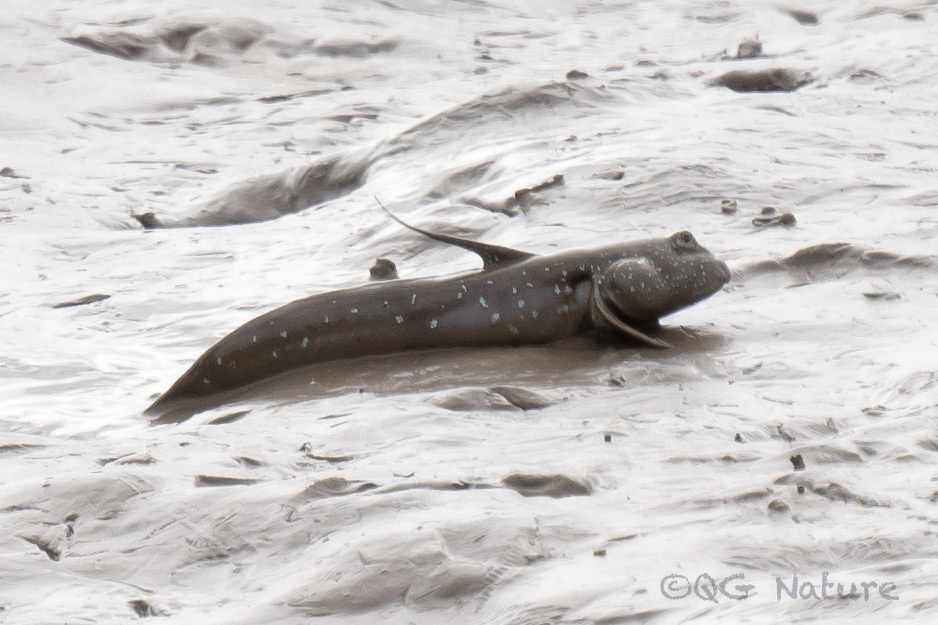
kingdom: Animalia
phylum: Chordata
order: Perciformes
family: Gobiidae
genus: Boleophthalmus
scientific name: Boleophthalmus pectinirostris
